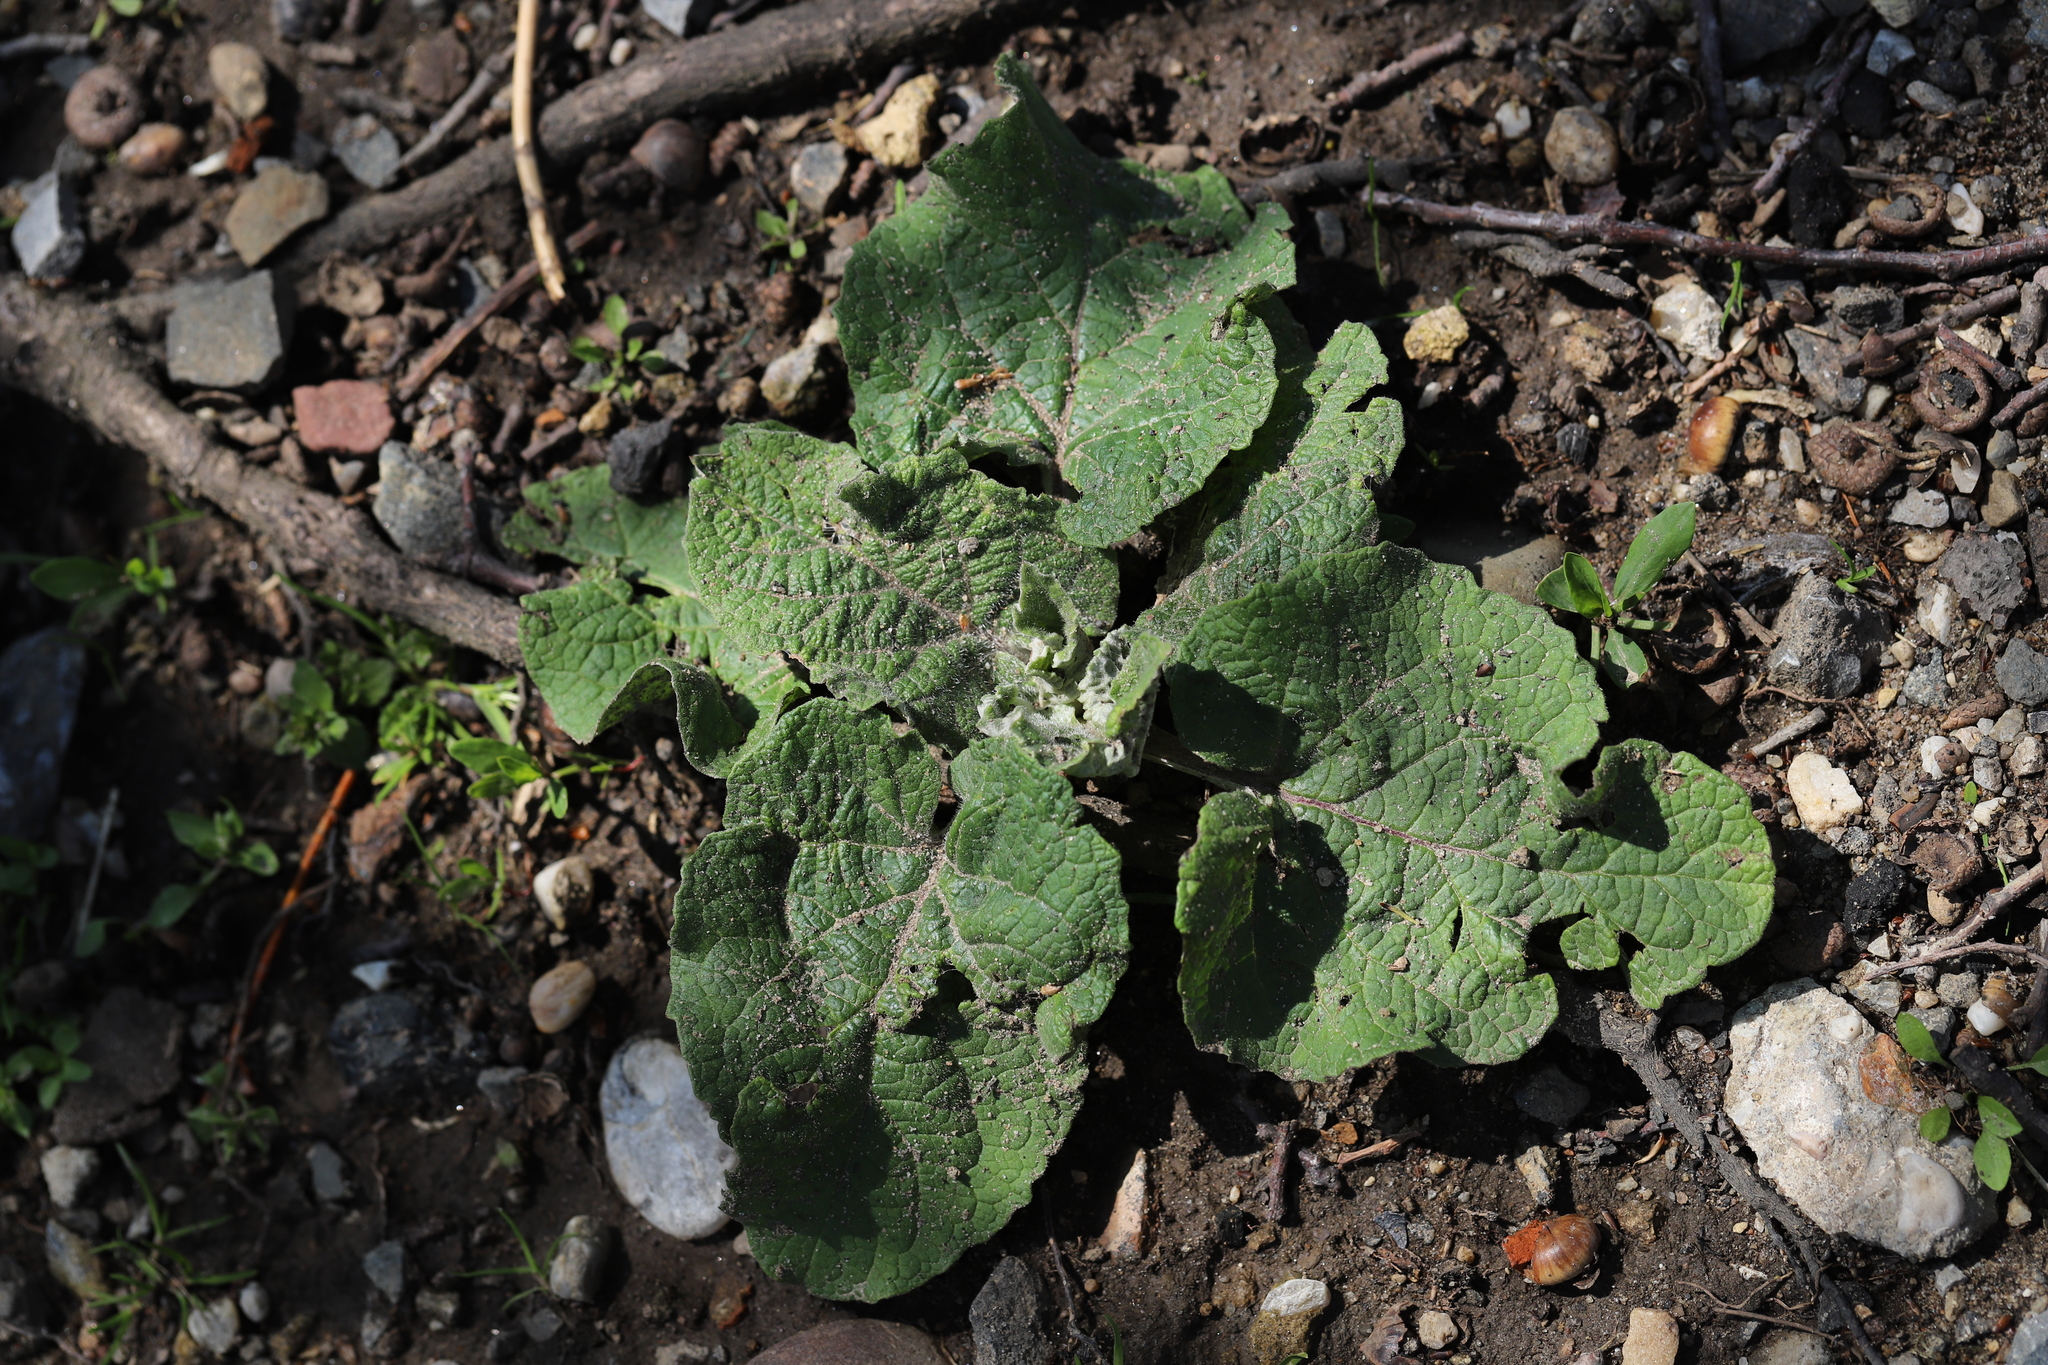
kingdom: Plantae
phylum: Tracheophyta
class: Magnoliopsida
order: Asterales
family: Asteraceae
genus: Arctium
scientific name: Arctium
